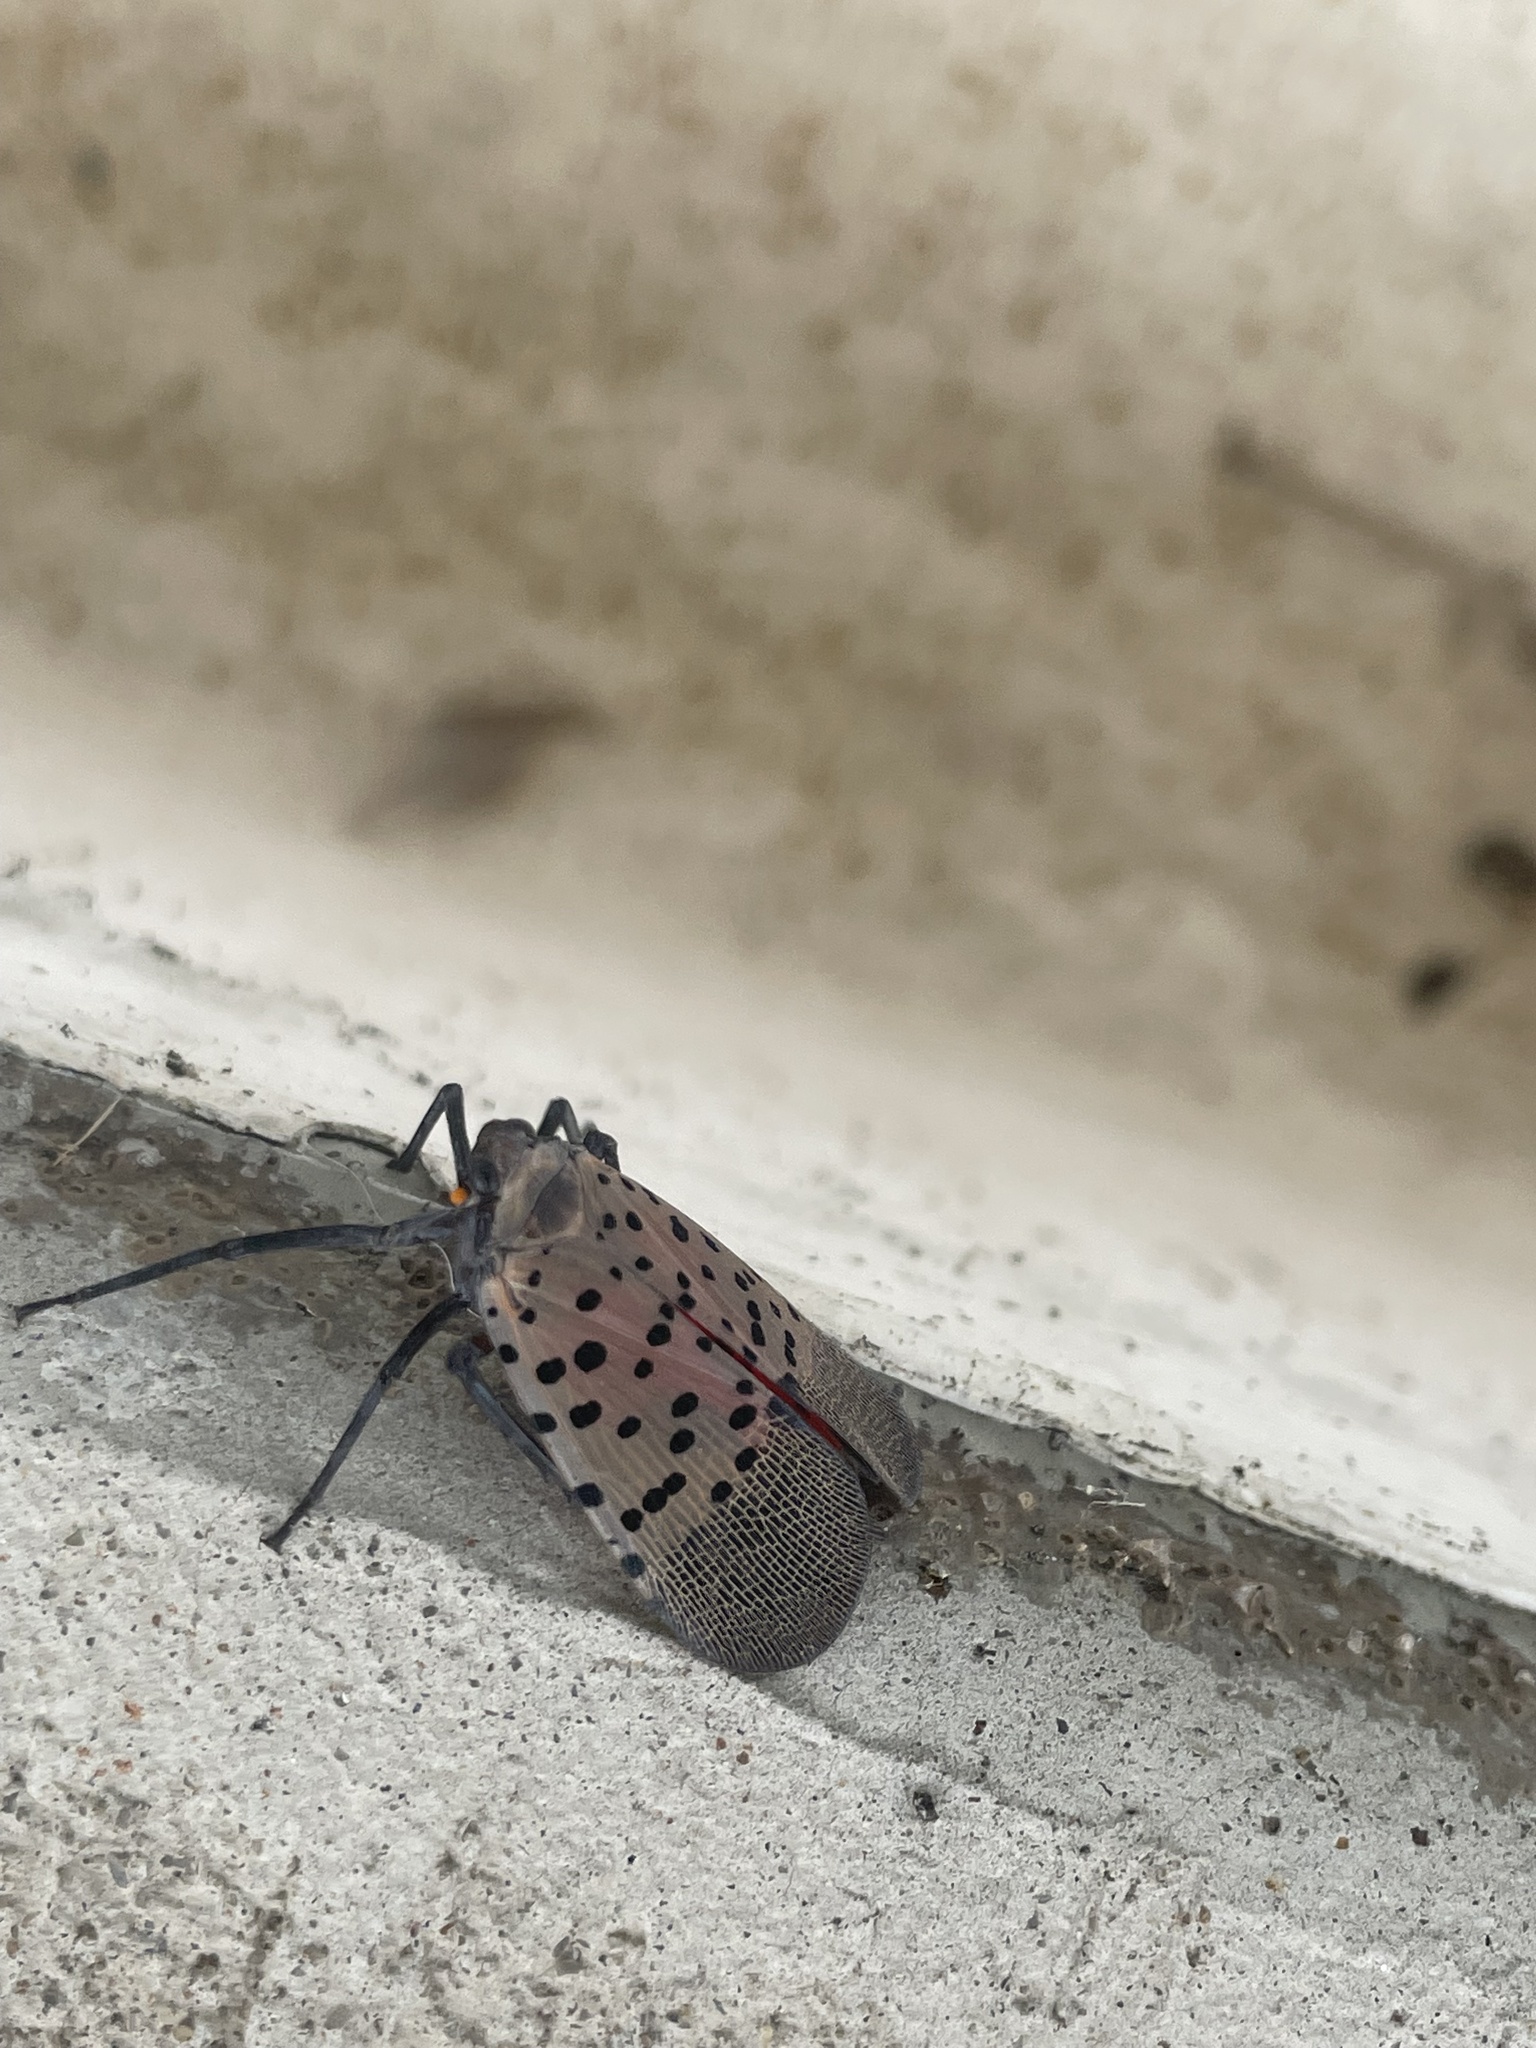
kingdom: Animalia
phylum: Arthropoda
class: Insecta
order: Hemiptera
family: Fulgoridae
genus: Lycorma
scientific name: Lycorma delicatula
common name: Spotted lanternfly
